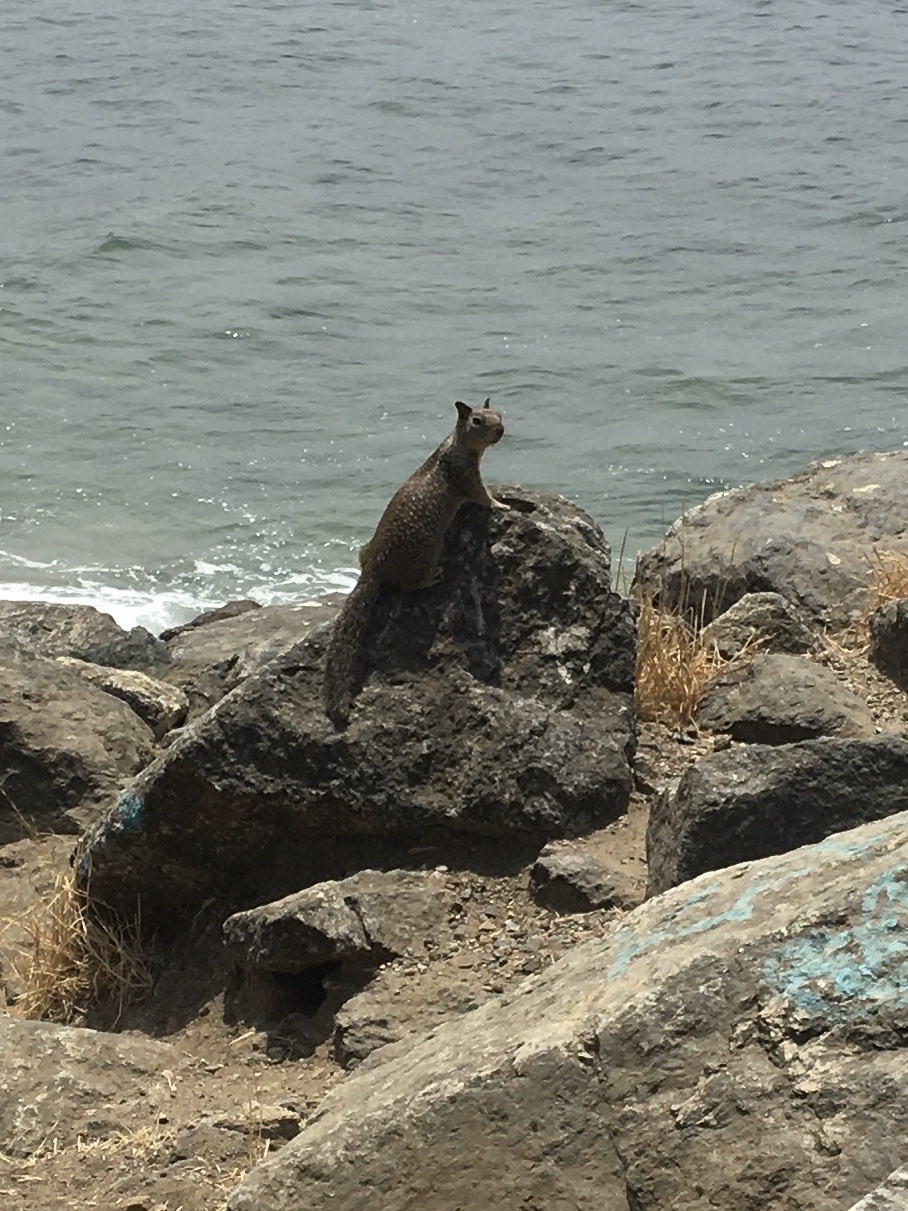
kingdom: Animalia
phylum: Chordata
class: Mammalia
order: Rodentia
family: Sciuridae
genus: Otospermophilus
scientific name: Otospermophilus beecheyi
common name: California ground squirrel
